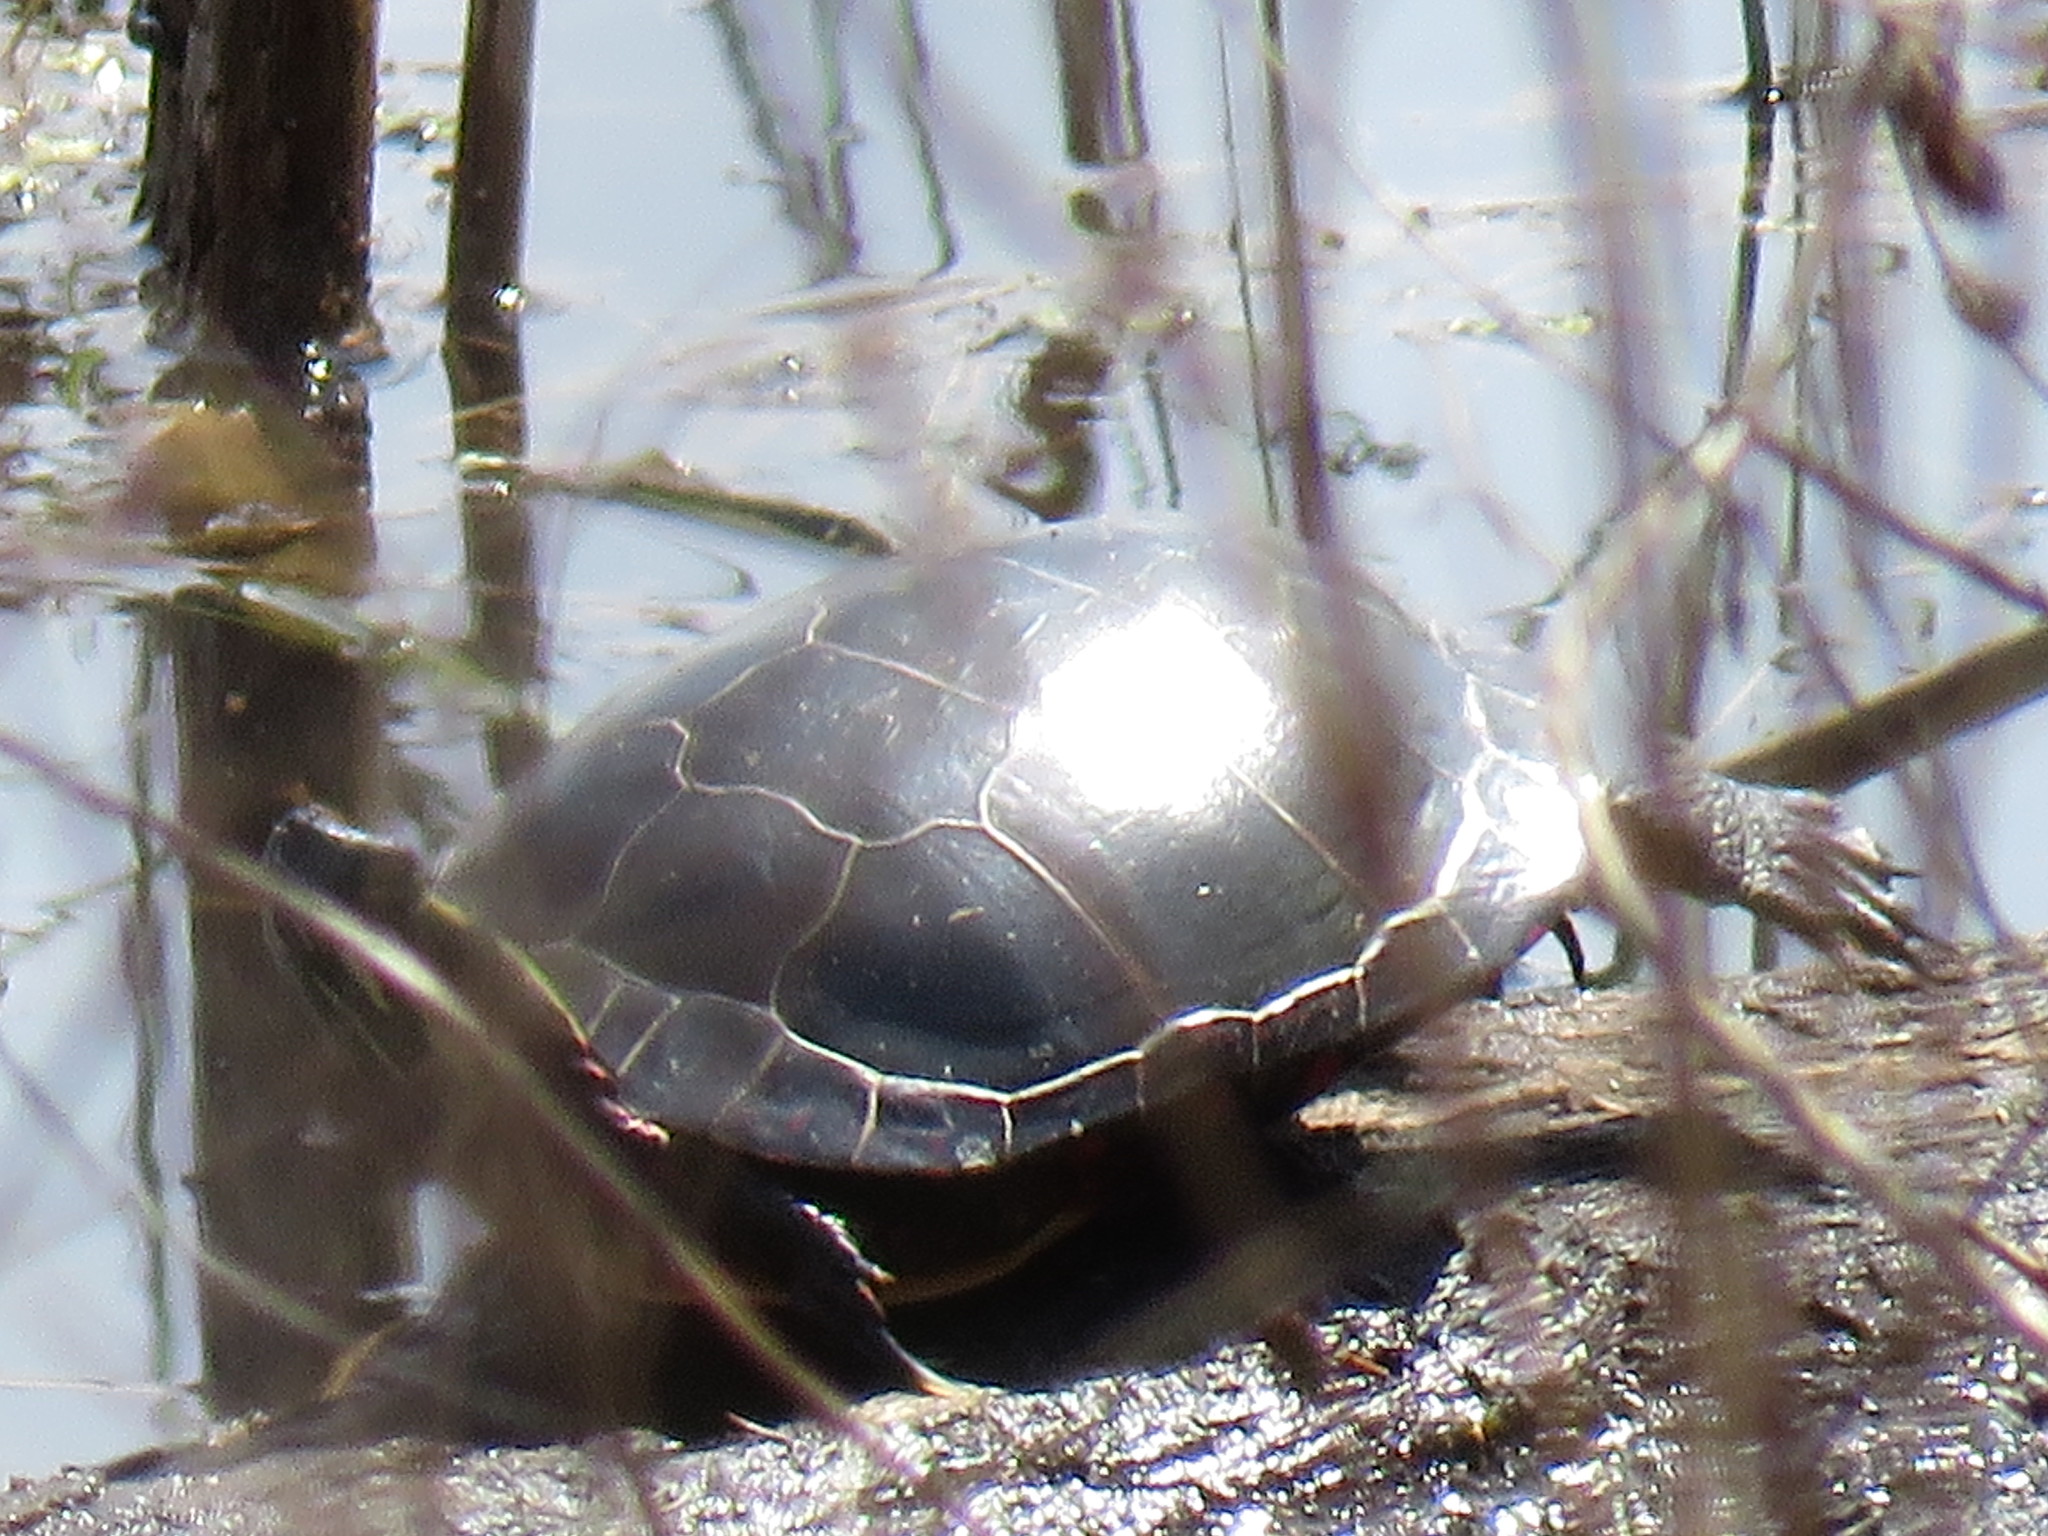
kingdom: Animalia
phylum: Chordata
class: Testudines
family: Emydidae
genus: Chrysemys
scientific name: Chrysemys picta
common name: Painted turtle
